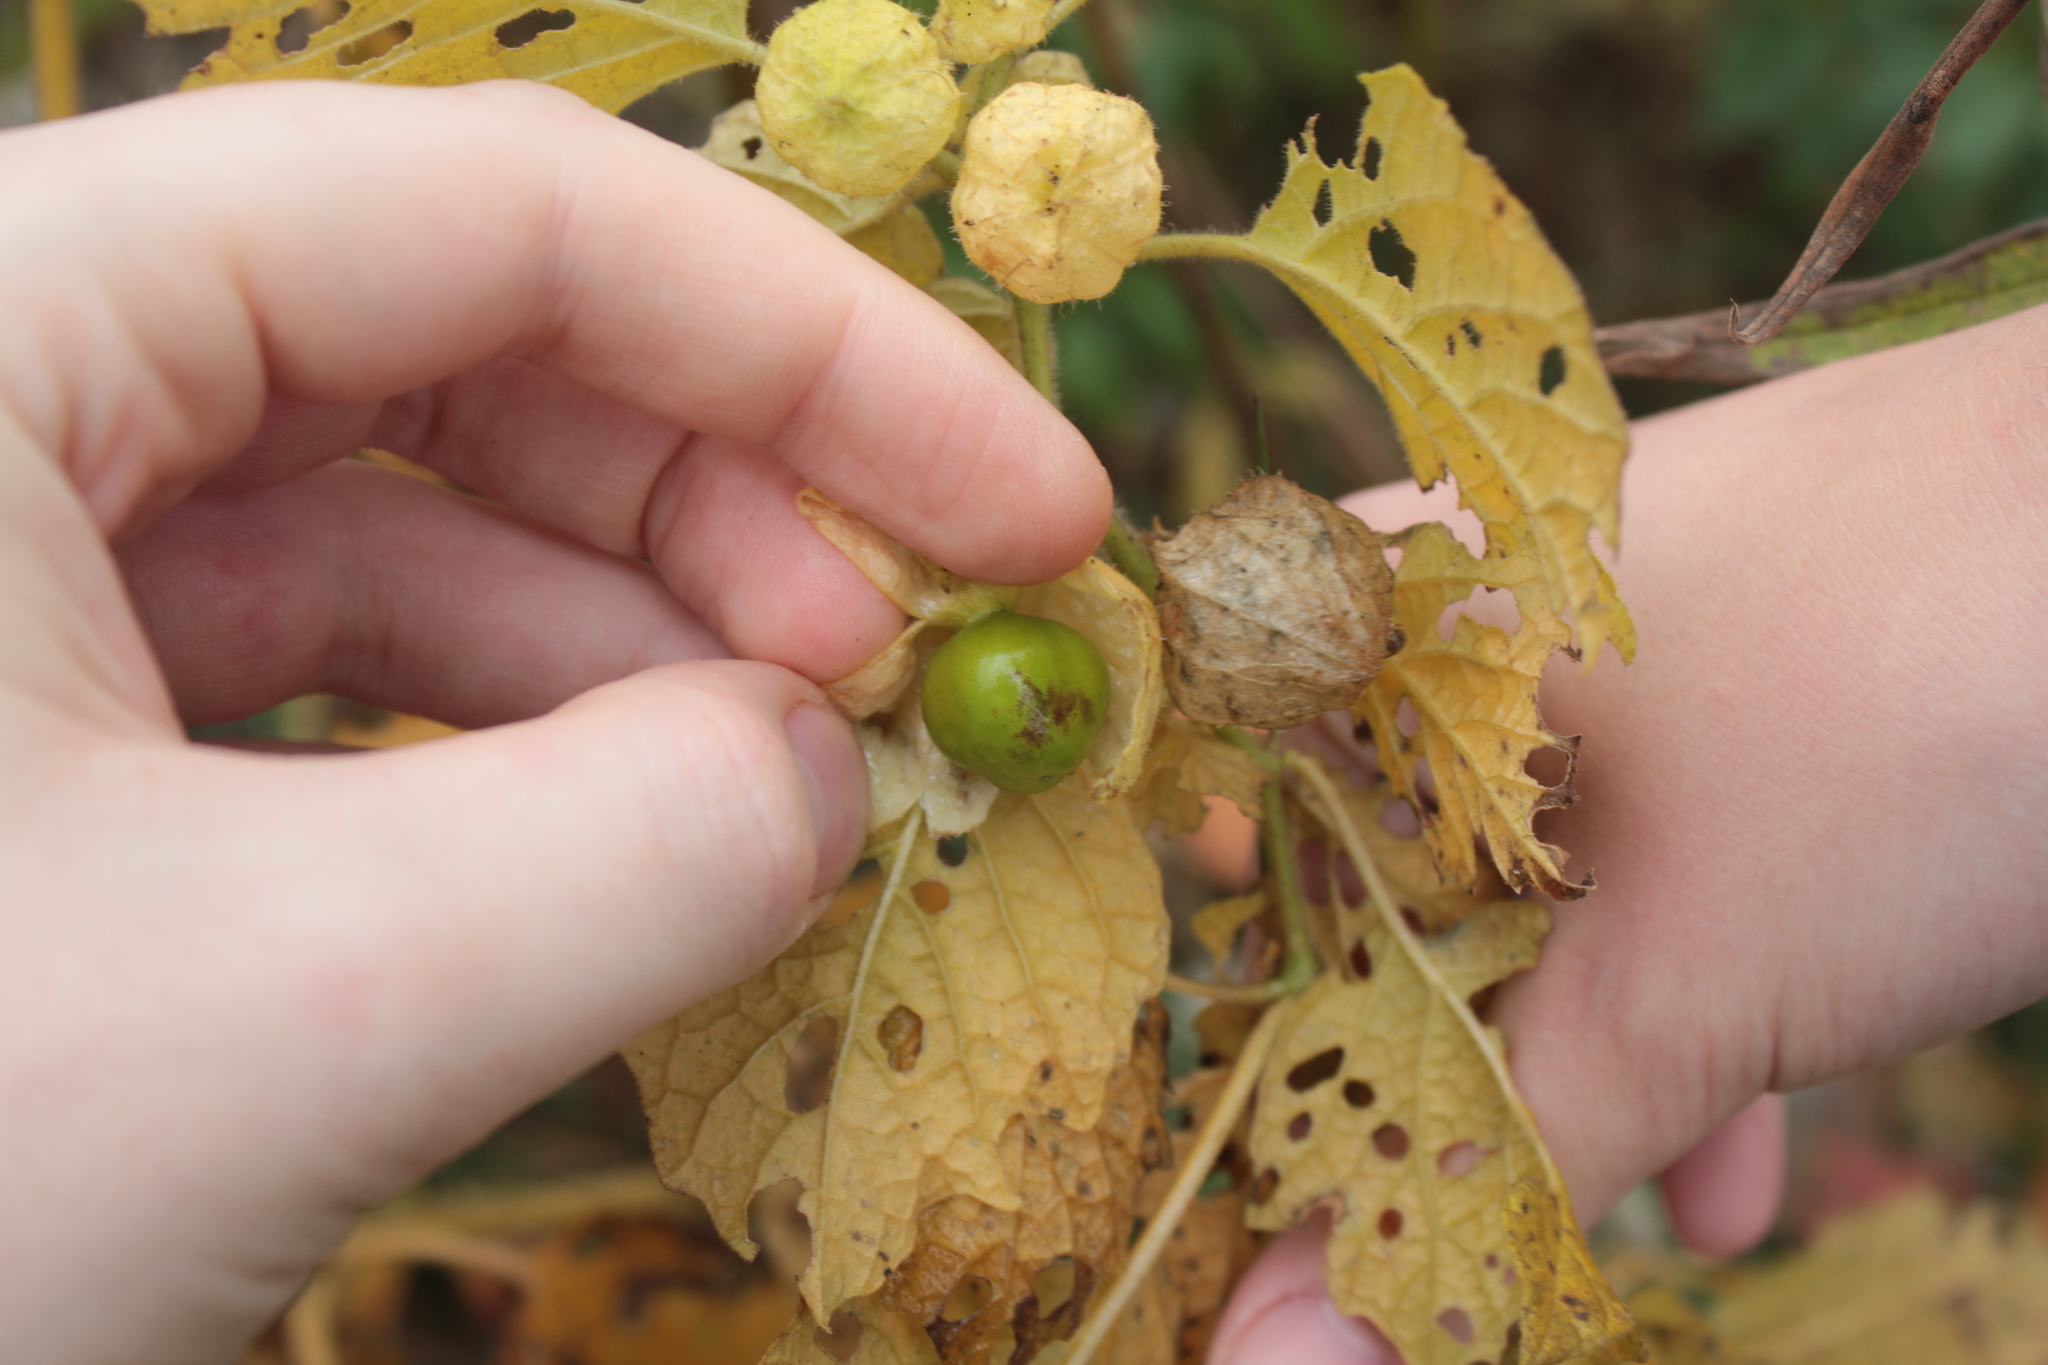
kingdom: Plantae
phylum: Tracheophyta
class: Magnoliopsida
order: Solanales
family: Solanaceae
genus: Physalis
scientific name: Physalis heterophylla
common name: Clammy ground-cherry
